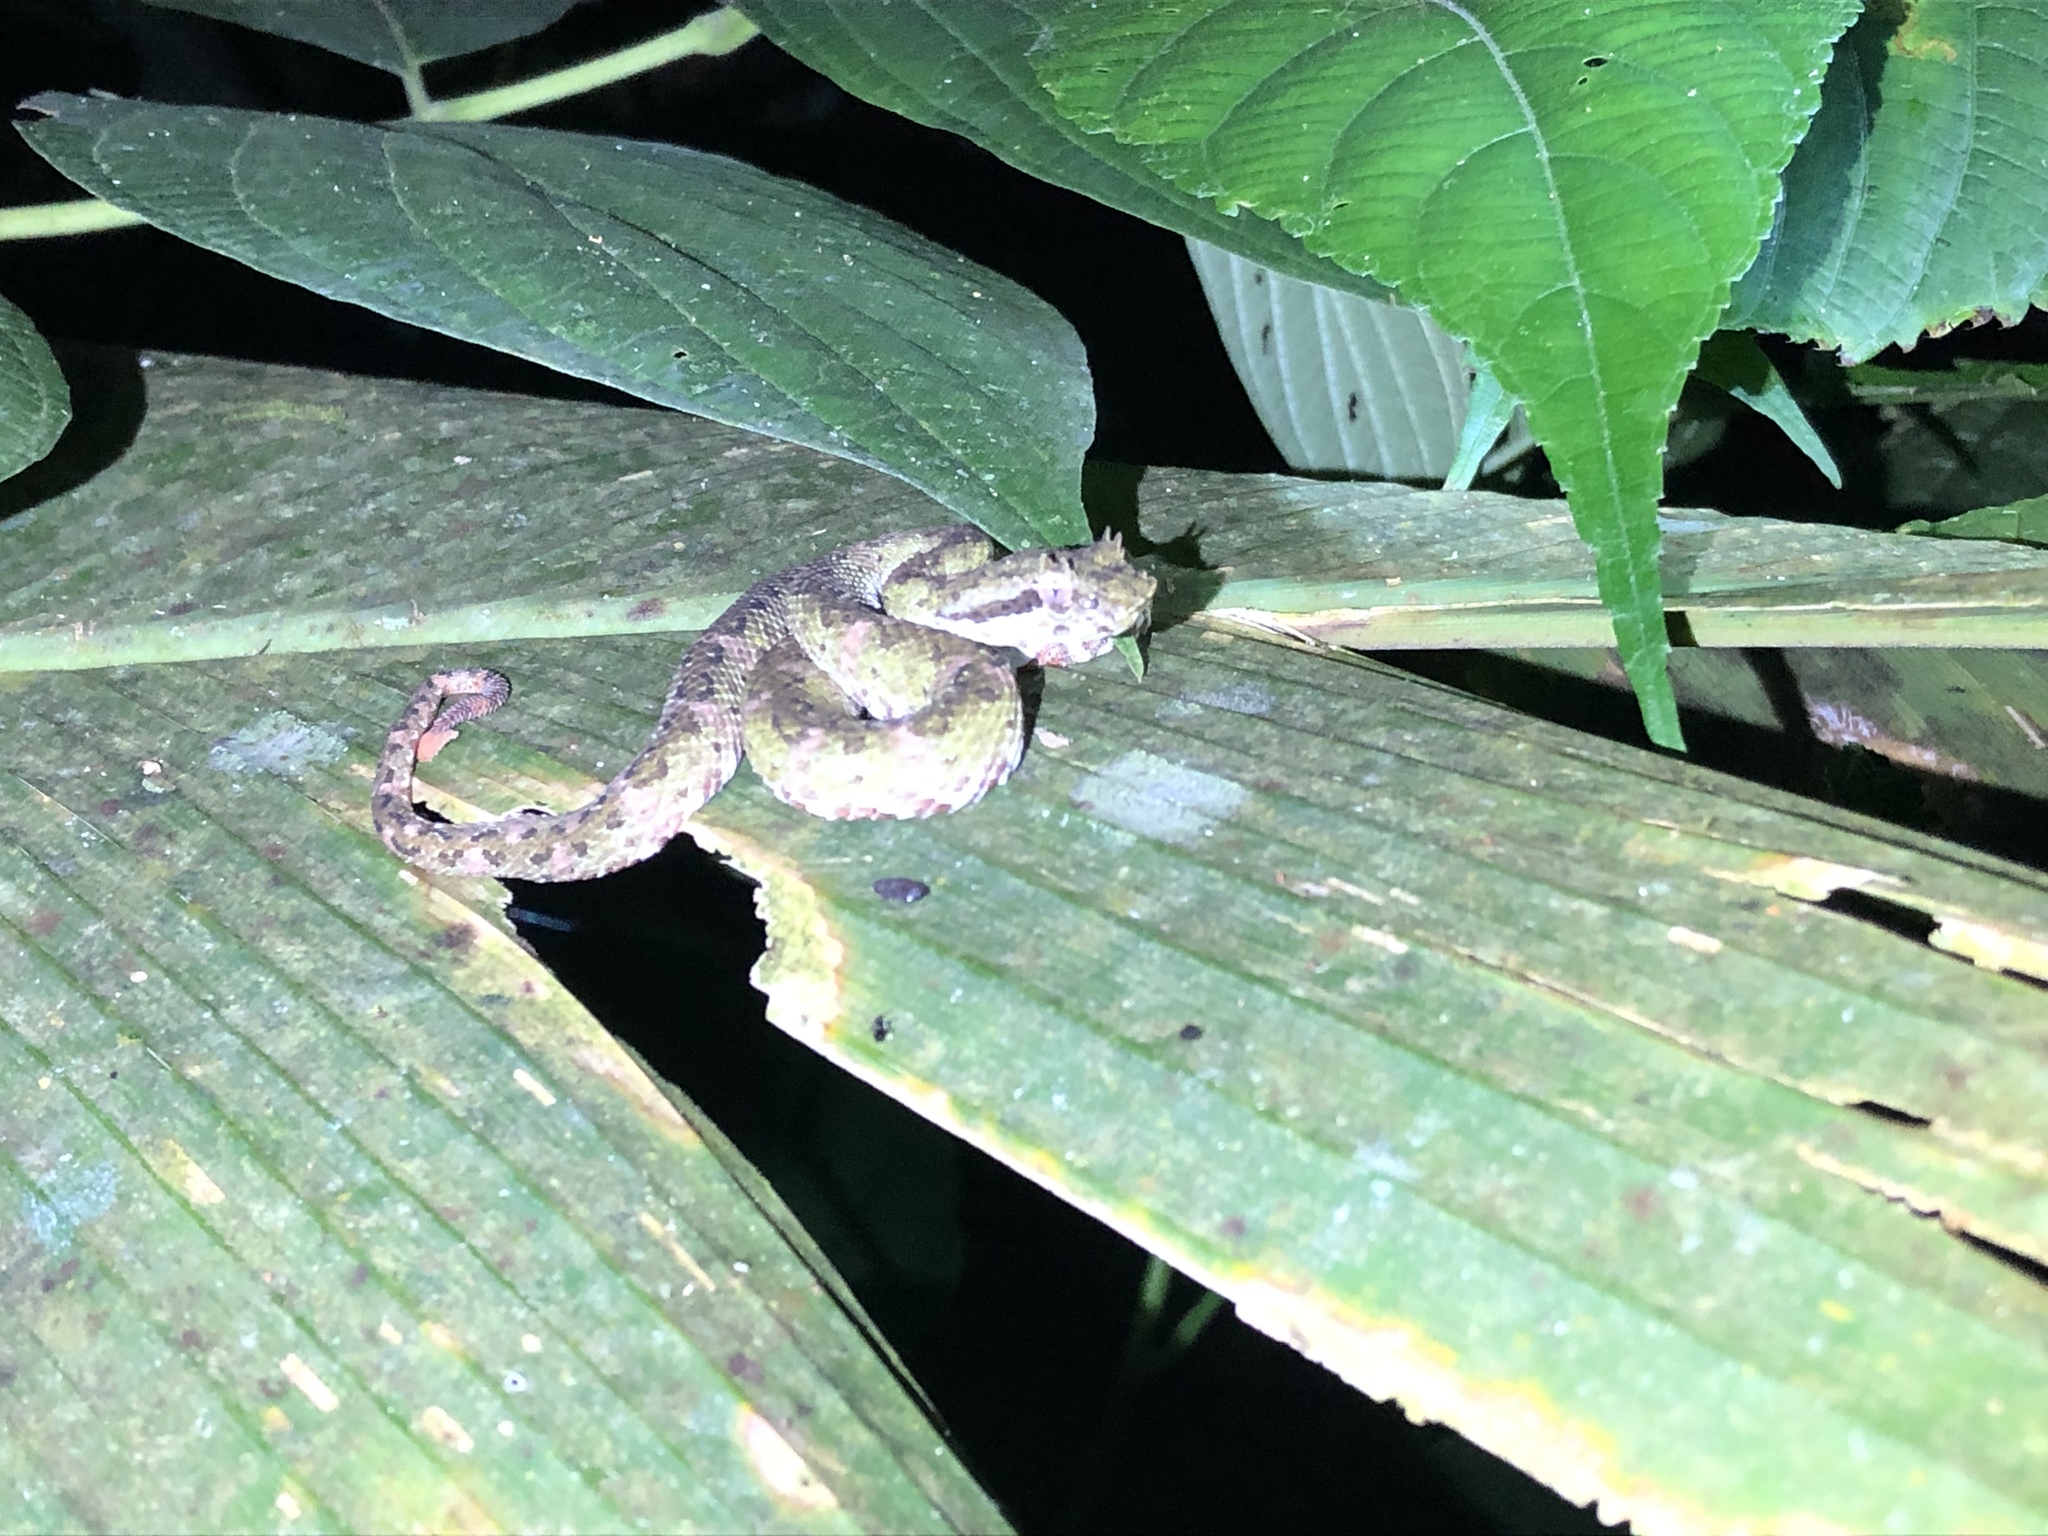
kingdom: Animalia
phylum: Chordata
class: Squamata
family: Viperidae
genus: Bothriechis
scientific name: Bothriechis schlegelii
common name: Eyelash viper
